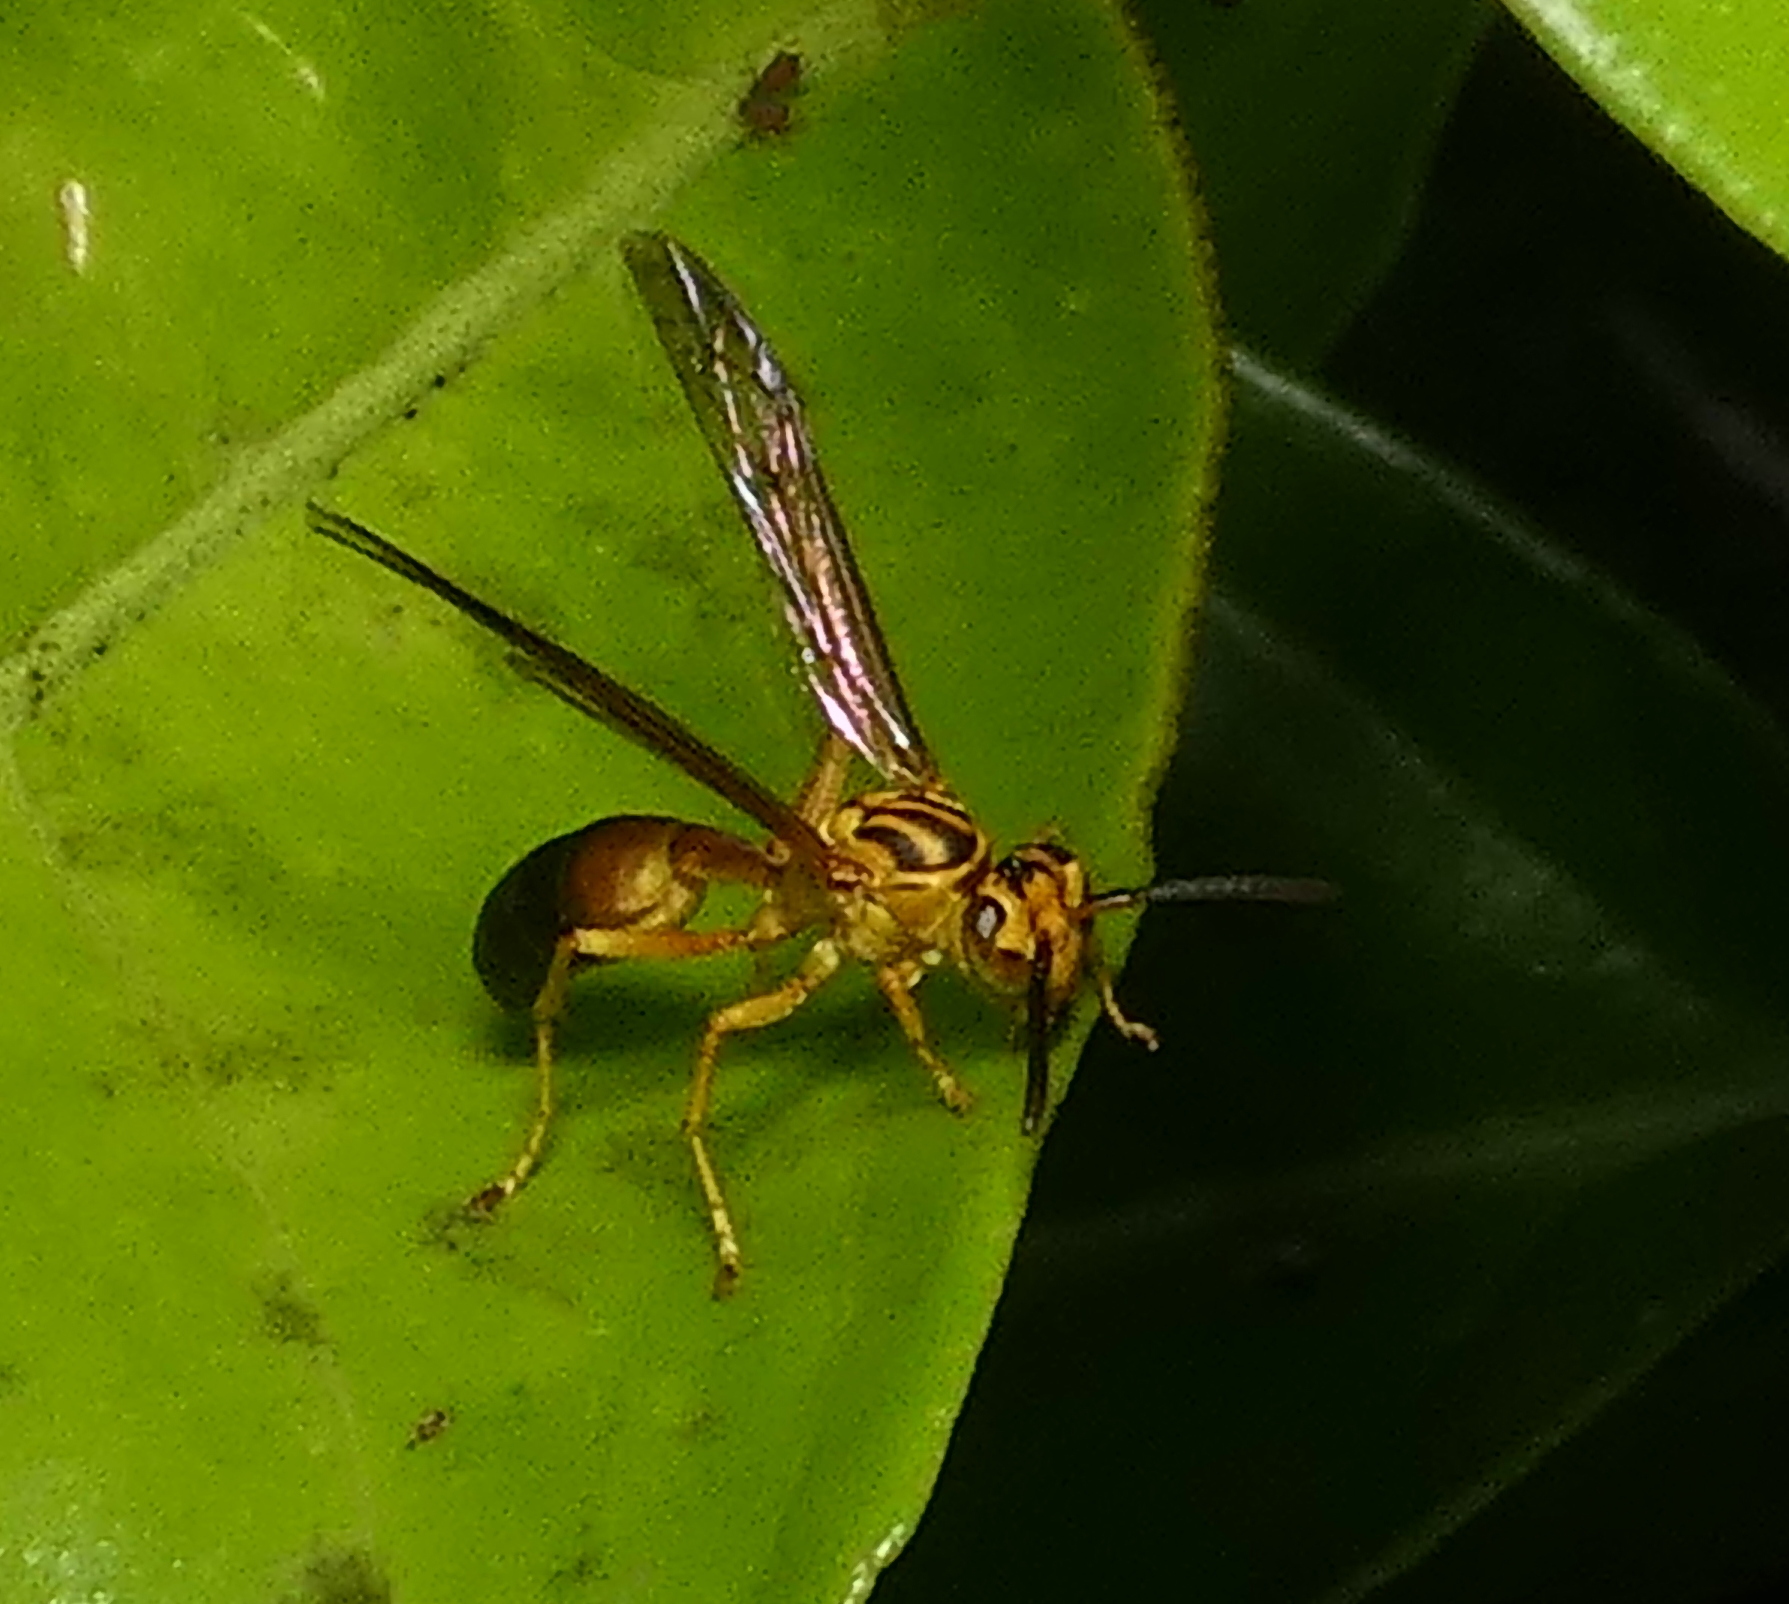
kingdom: Animalia
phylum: Arthropoda
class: Insecta
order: Hymenoptera
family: Vespidae
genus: Agelaia
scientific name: Agelaia pallipes
